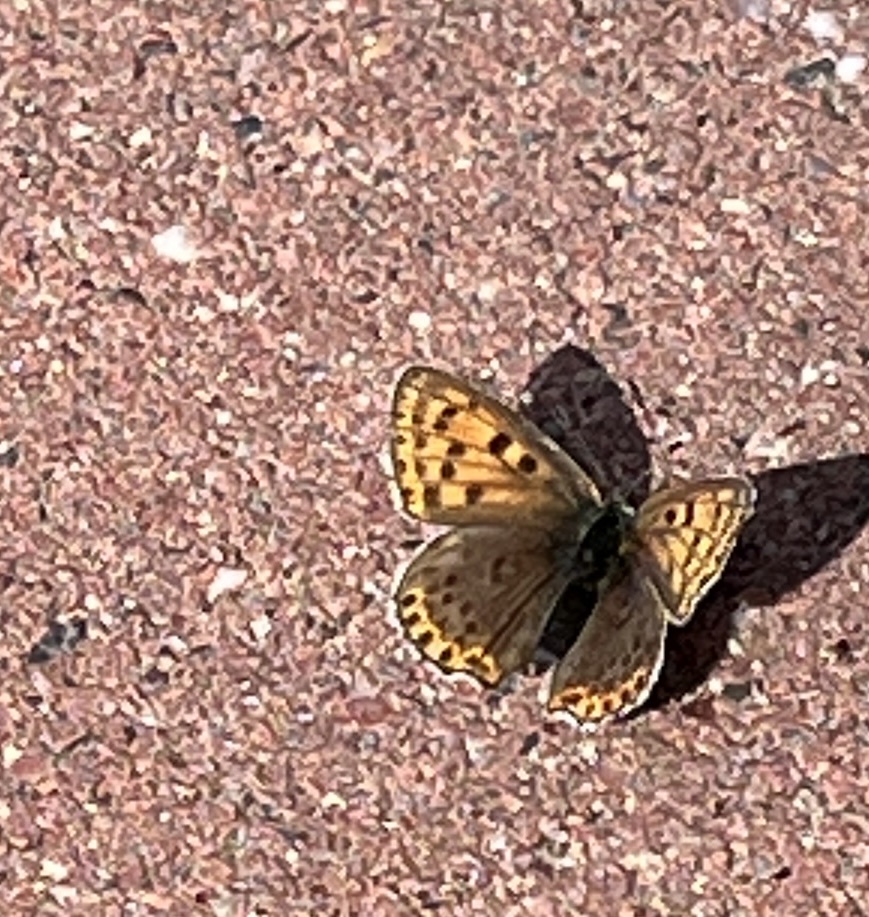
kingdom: Animalia
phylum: Arthropoda
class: Insecta
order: Lepidoptera
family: Lycaenidae
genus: Loweia
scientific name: Loweia tityrus
